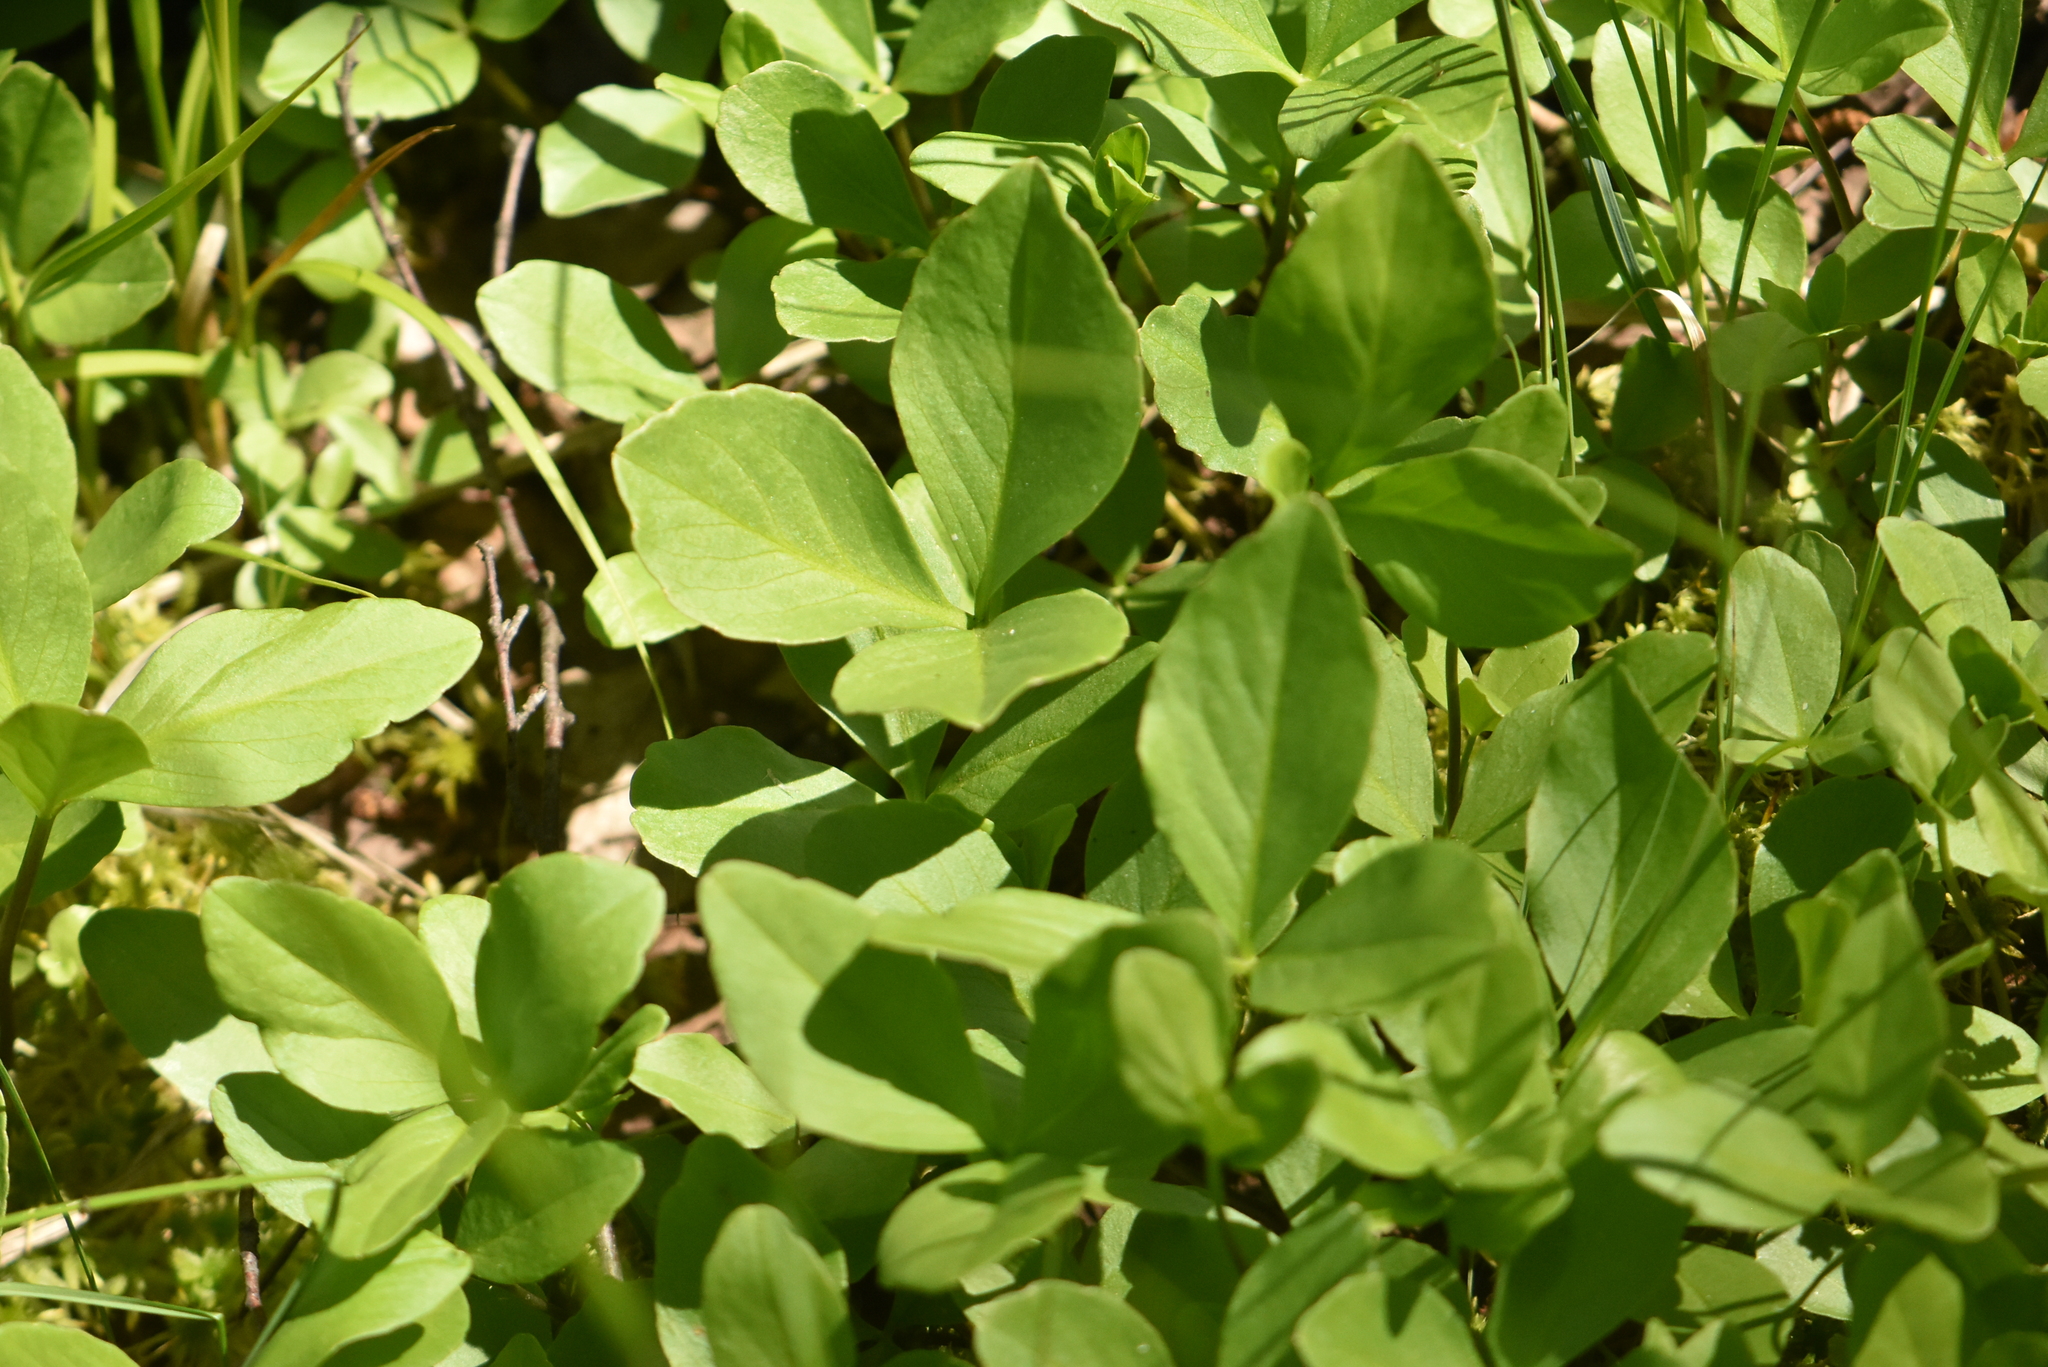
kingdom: Plantae
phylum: Tracheophyta
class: Magnoliopsida
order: Asterales
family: Menyanthaceae
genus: Menyanthes
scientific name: Menyanthes trifoliata
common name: Bogbean
